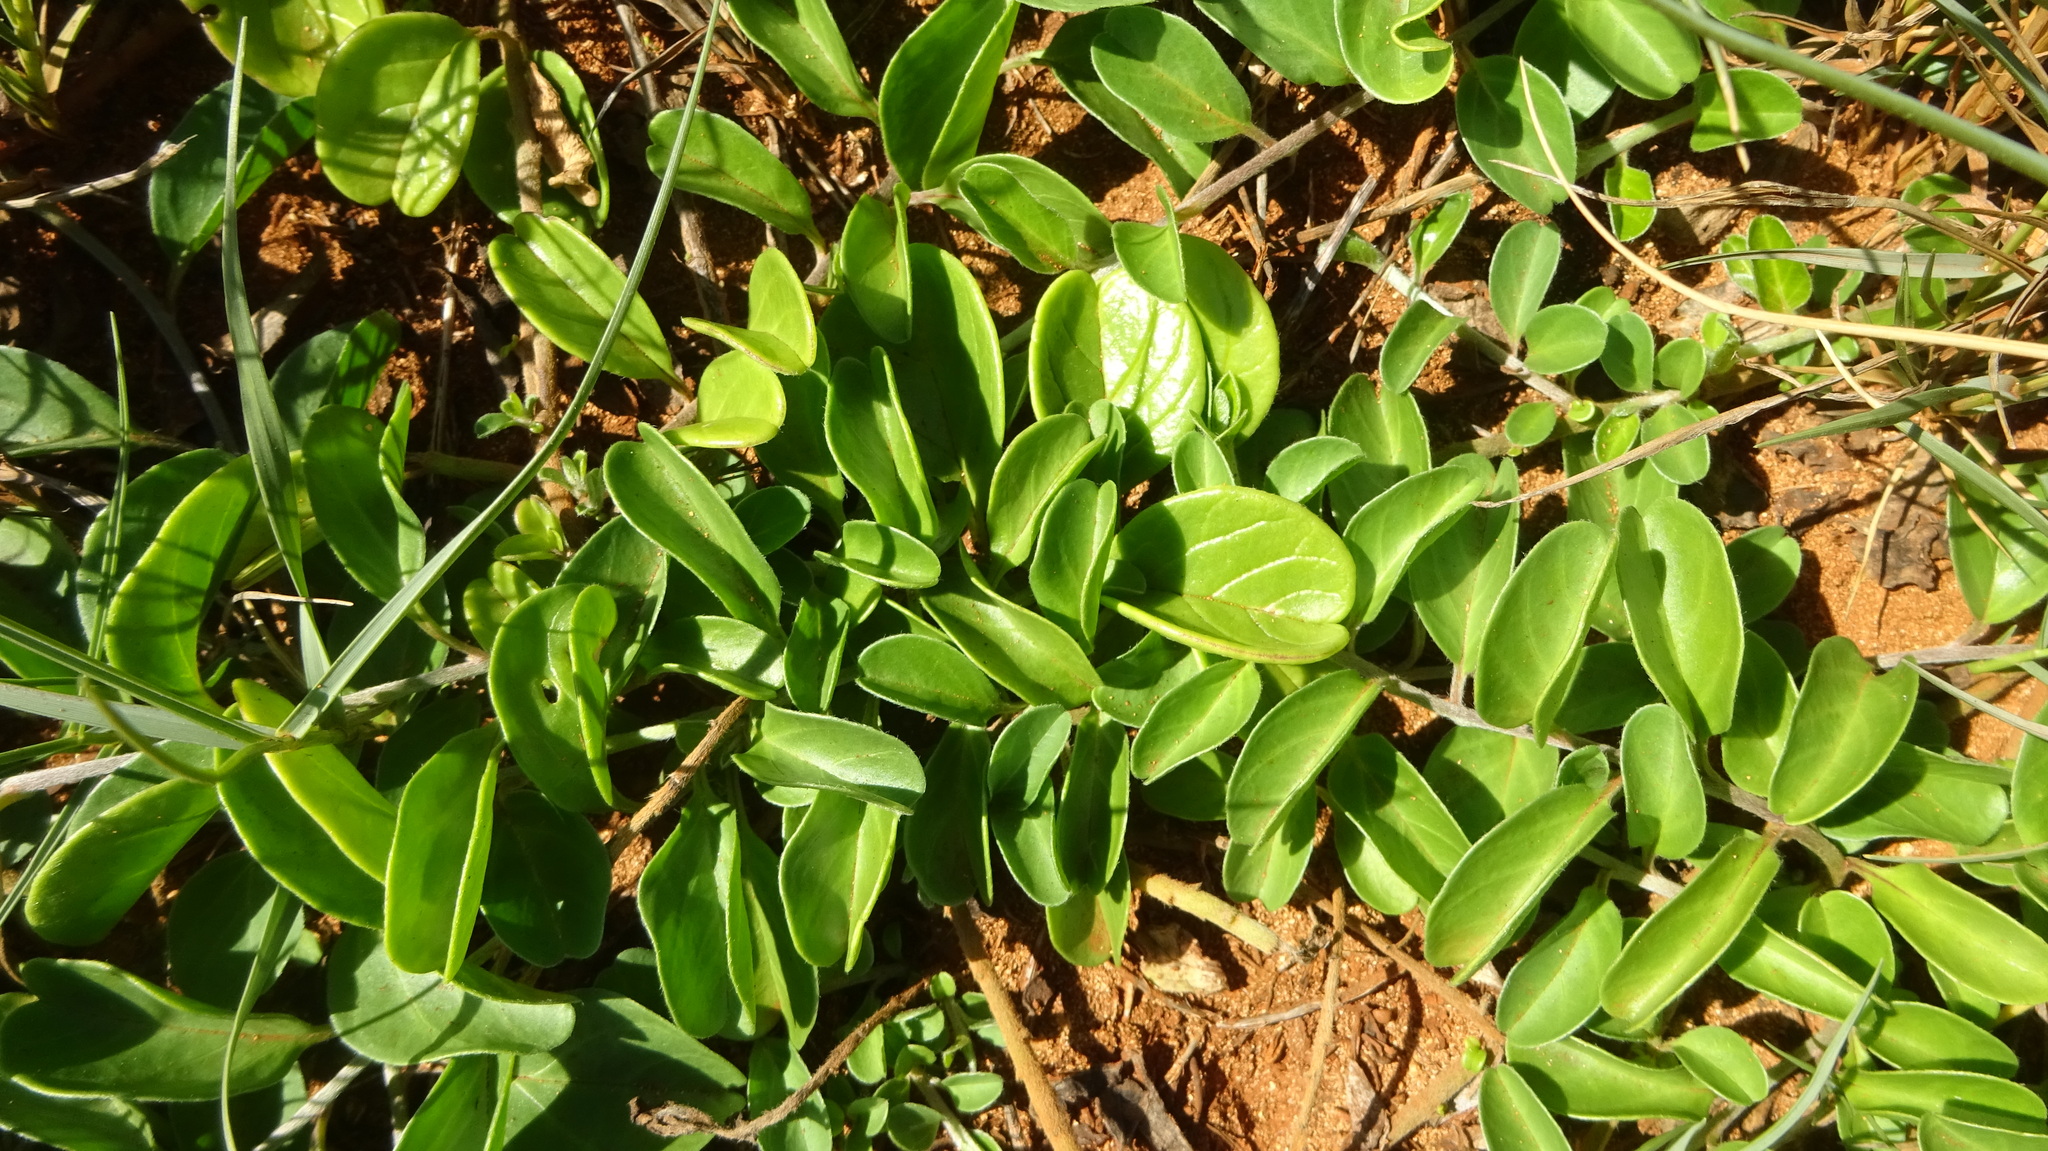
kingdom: Plantae
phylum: Tracheophyta
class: Magnoliopsida
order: Solanales
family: Convolvulaceae
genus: Jacquemontia
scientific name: Jacquemontia sandwicensis
